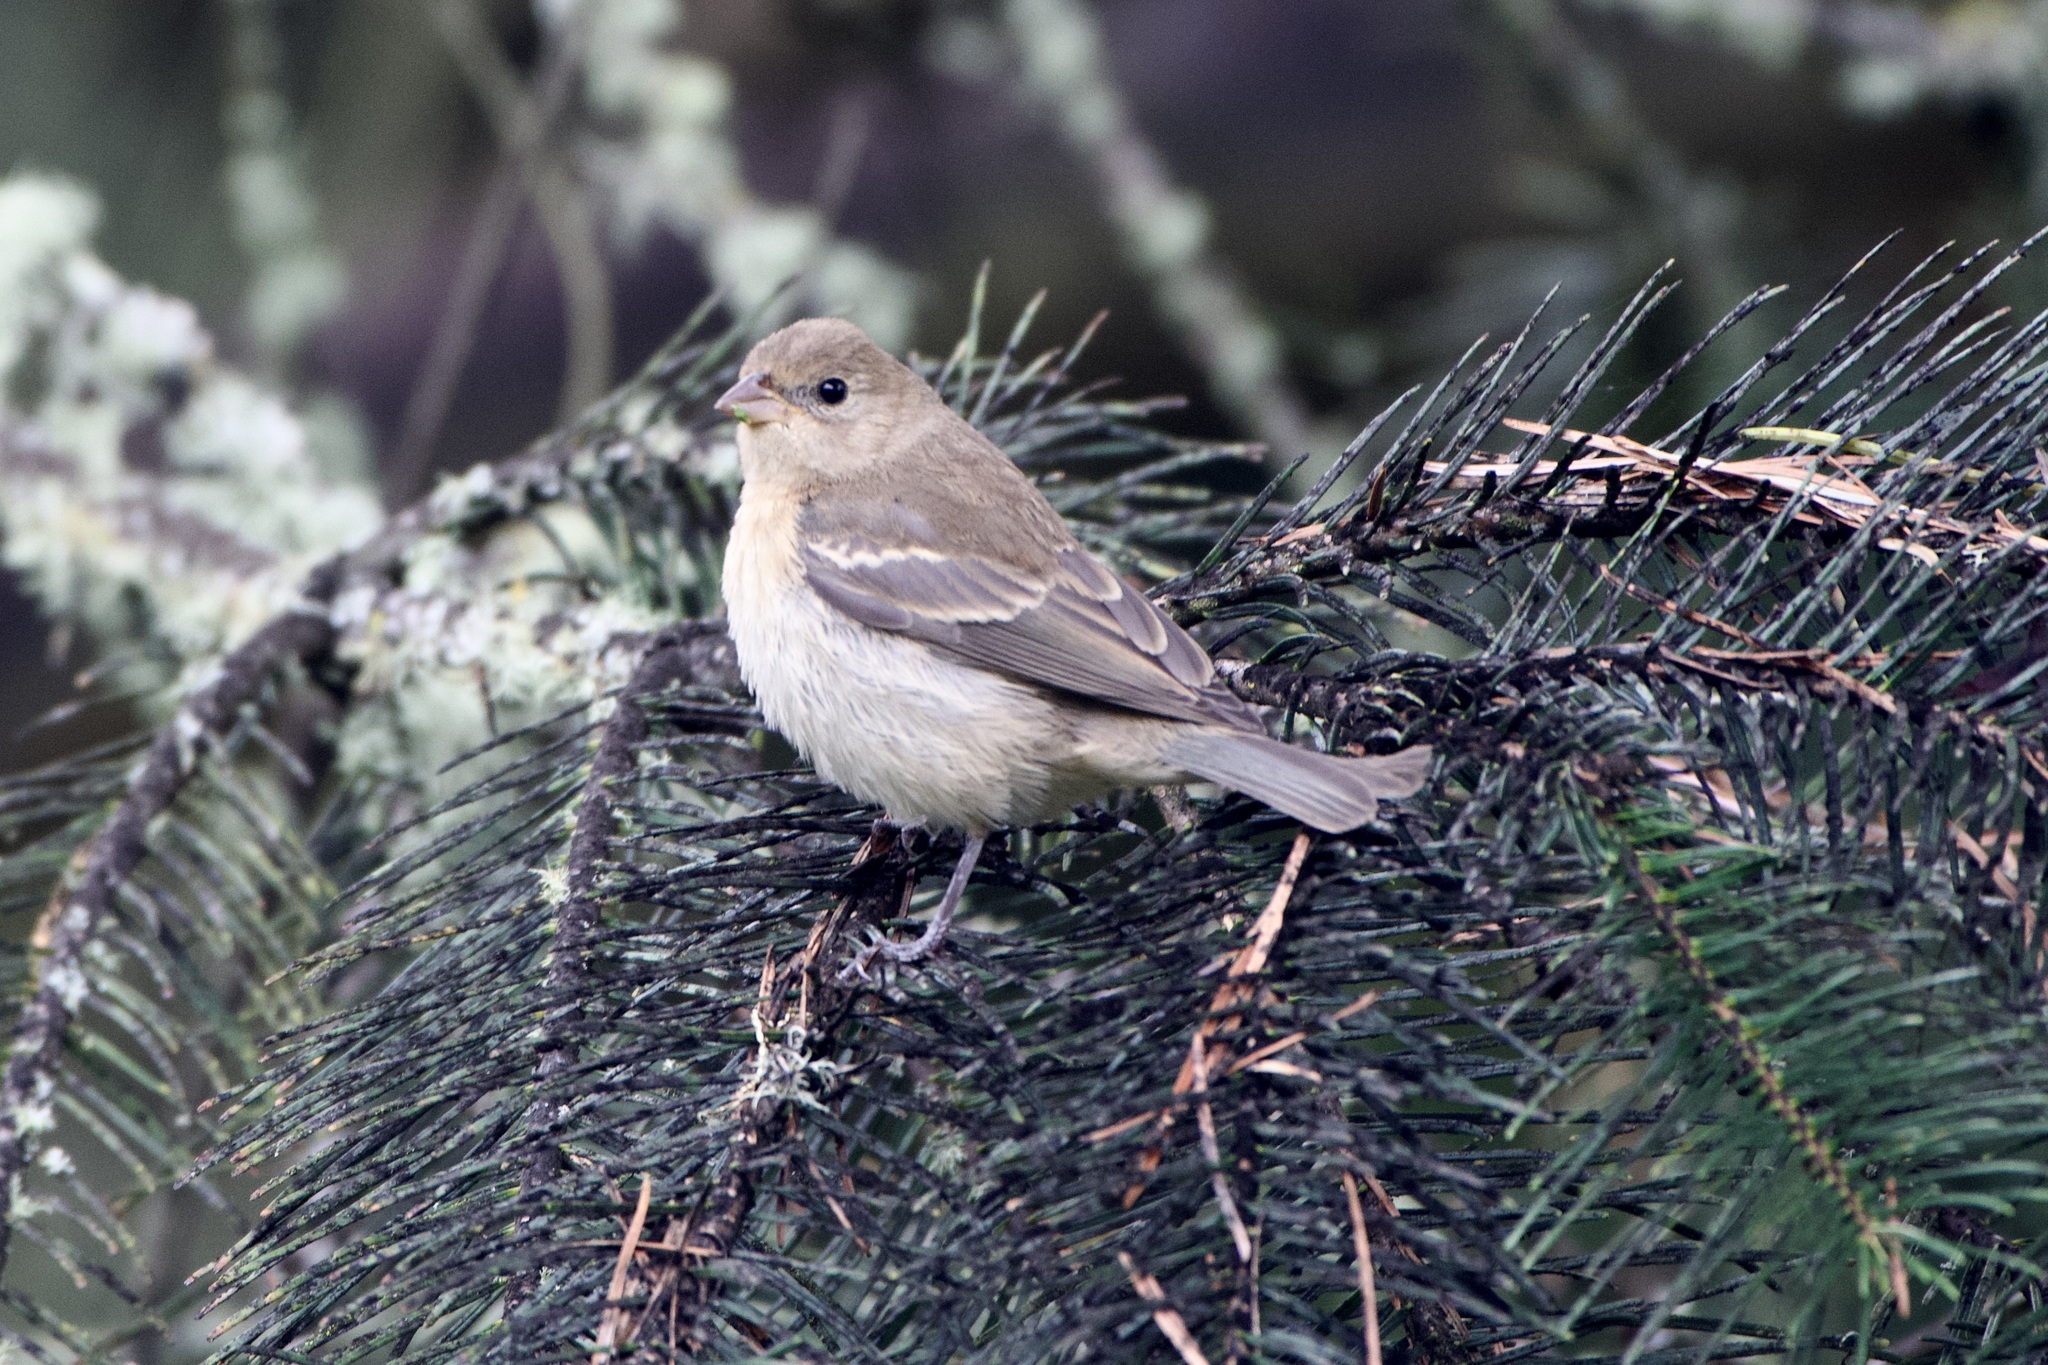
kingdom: Animalia
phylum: Chordata
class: Aves
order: Passeriformes
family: Cardinalidae
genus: Passerina
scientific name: Passerina amoena
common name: Lazuli bunting
